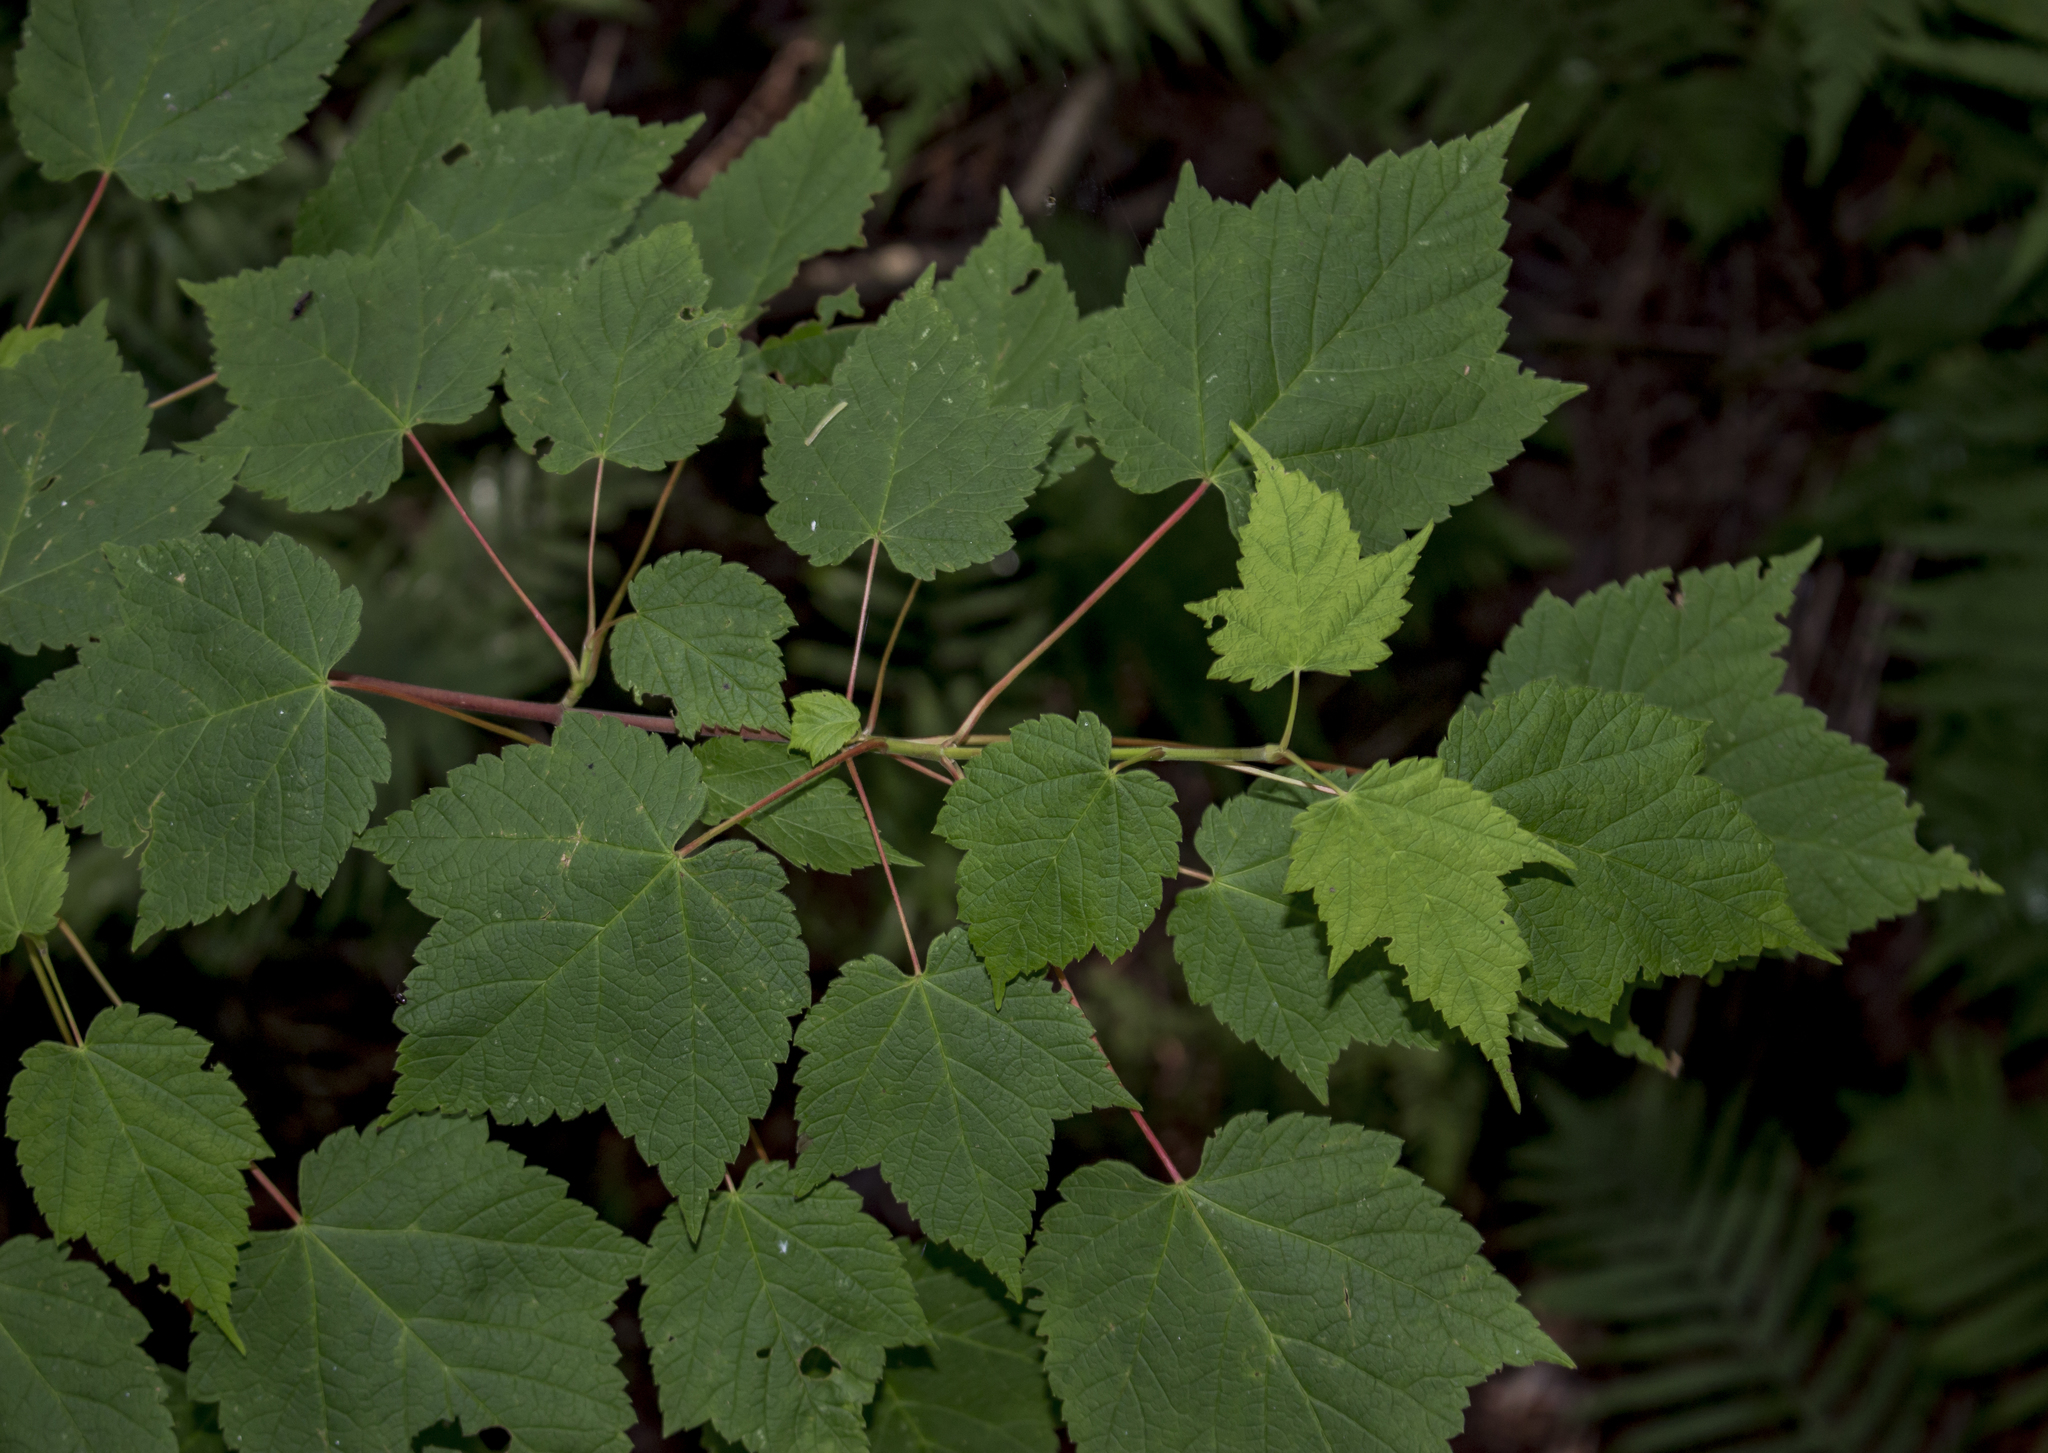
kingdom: Plantae
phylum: Tracheophyta
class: Magnoliopsida
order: Sapindales
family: Sapindaceae
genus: Acer
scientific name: Acer spicatum
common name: Mountain maple
